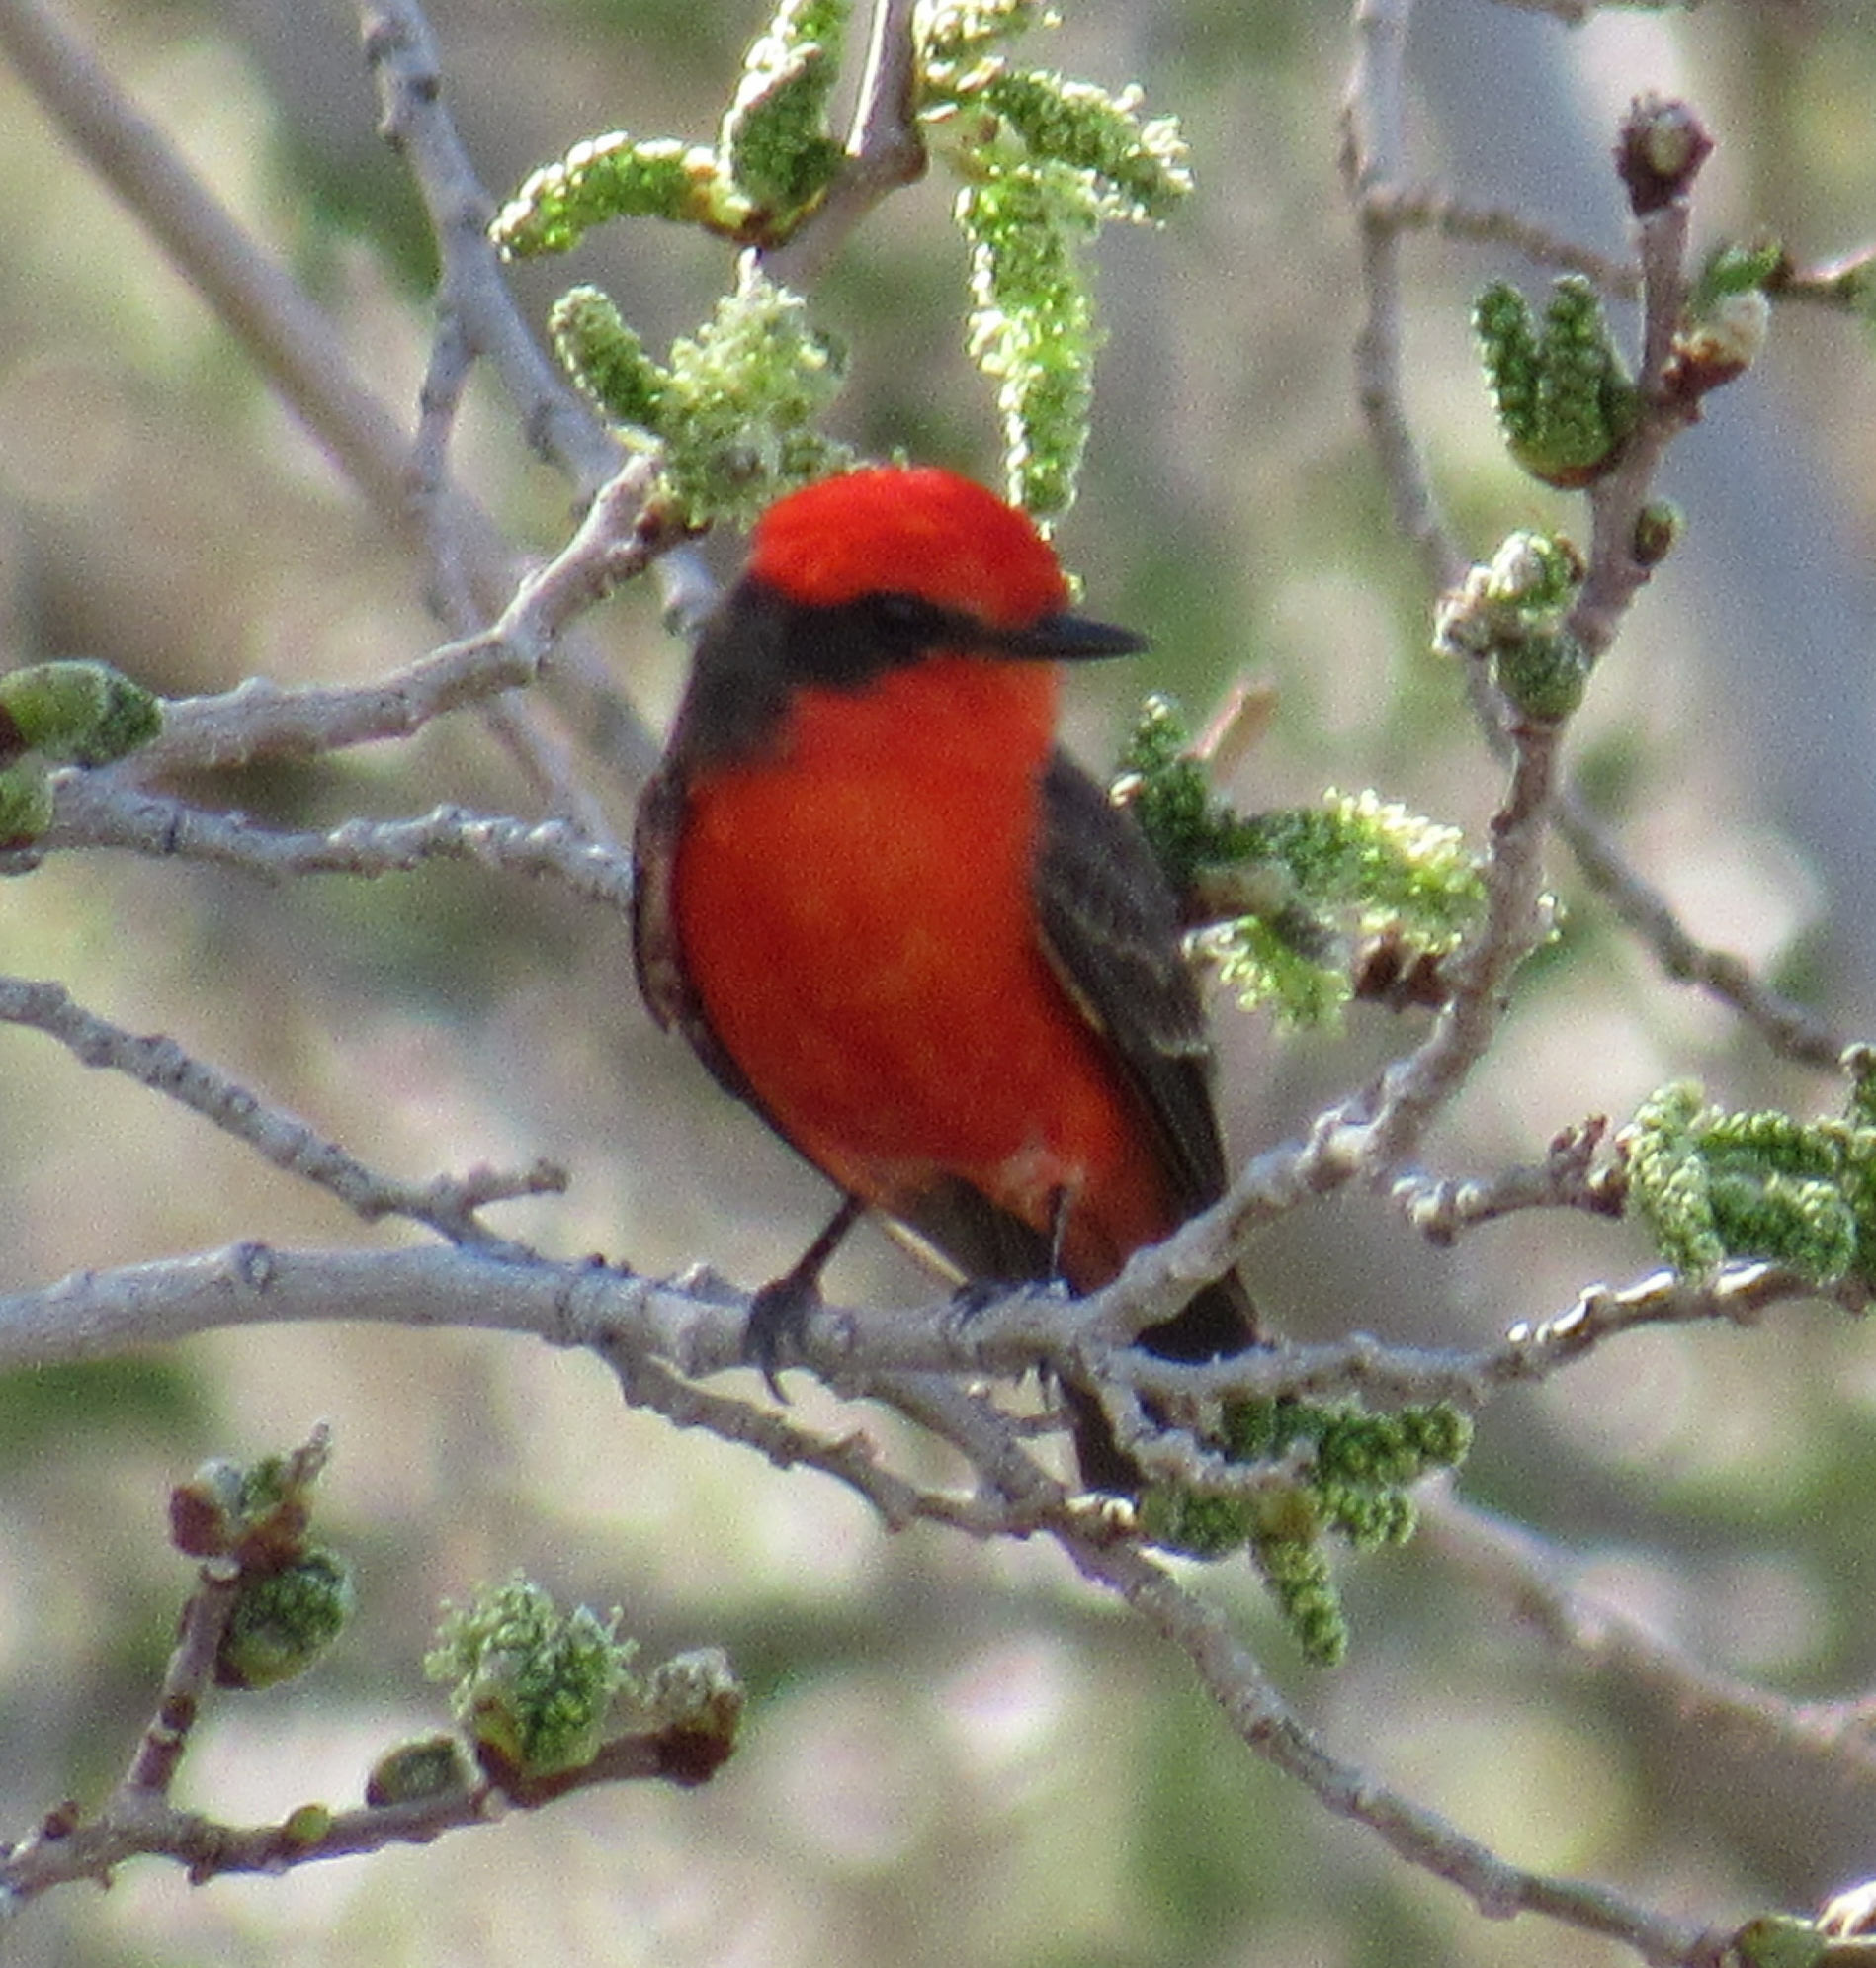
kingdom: Animalia
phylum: Chordata
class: Aves
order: Passeriformes
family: Tyrannidae
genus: Pyrocephalus
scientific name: Pyrocephalus rubinus
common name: Vermilion flycatcher
